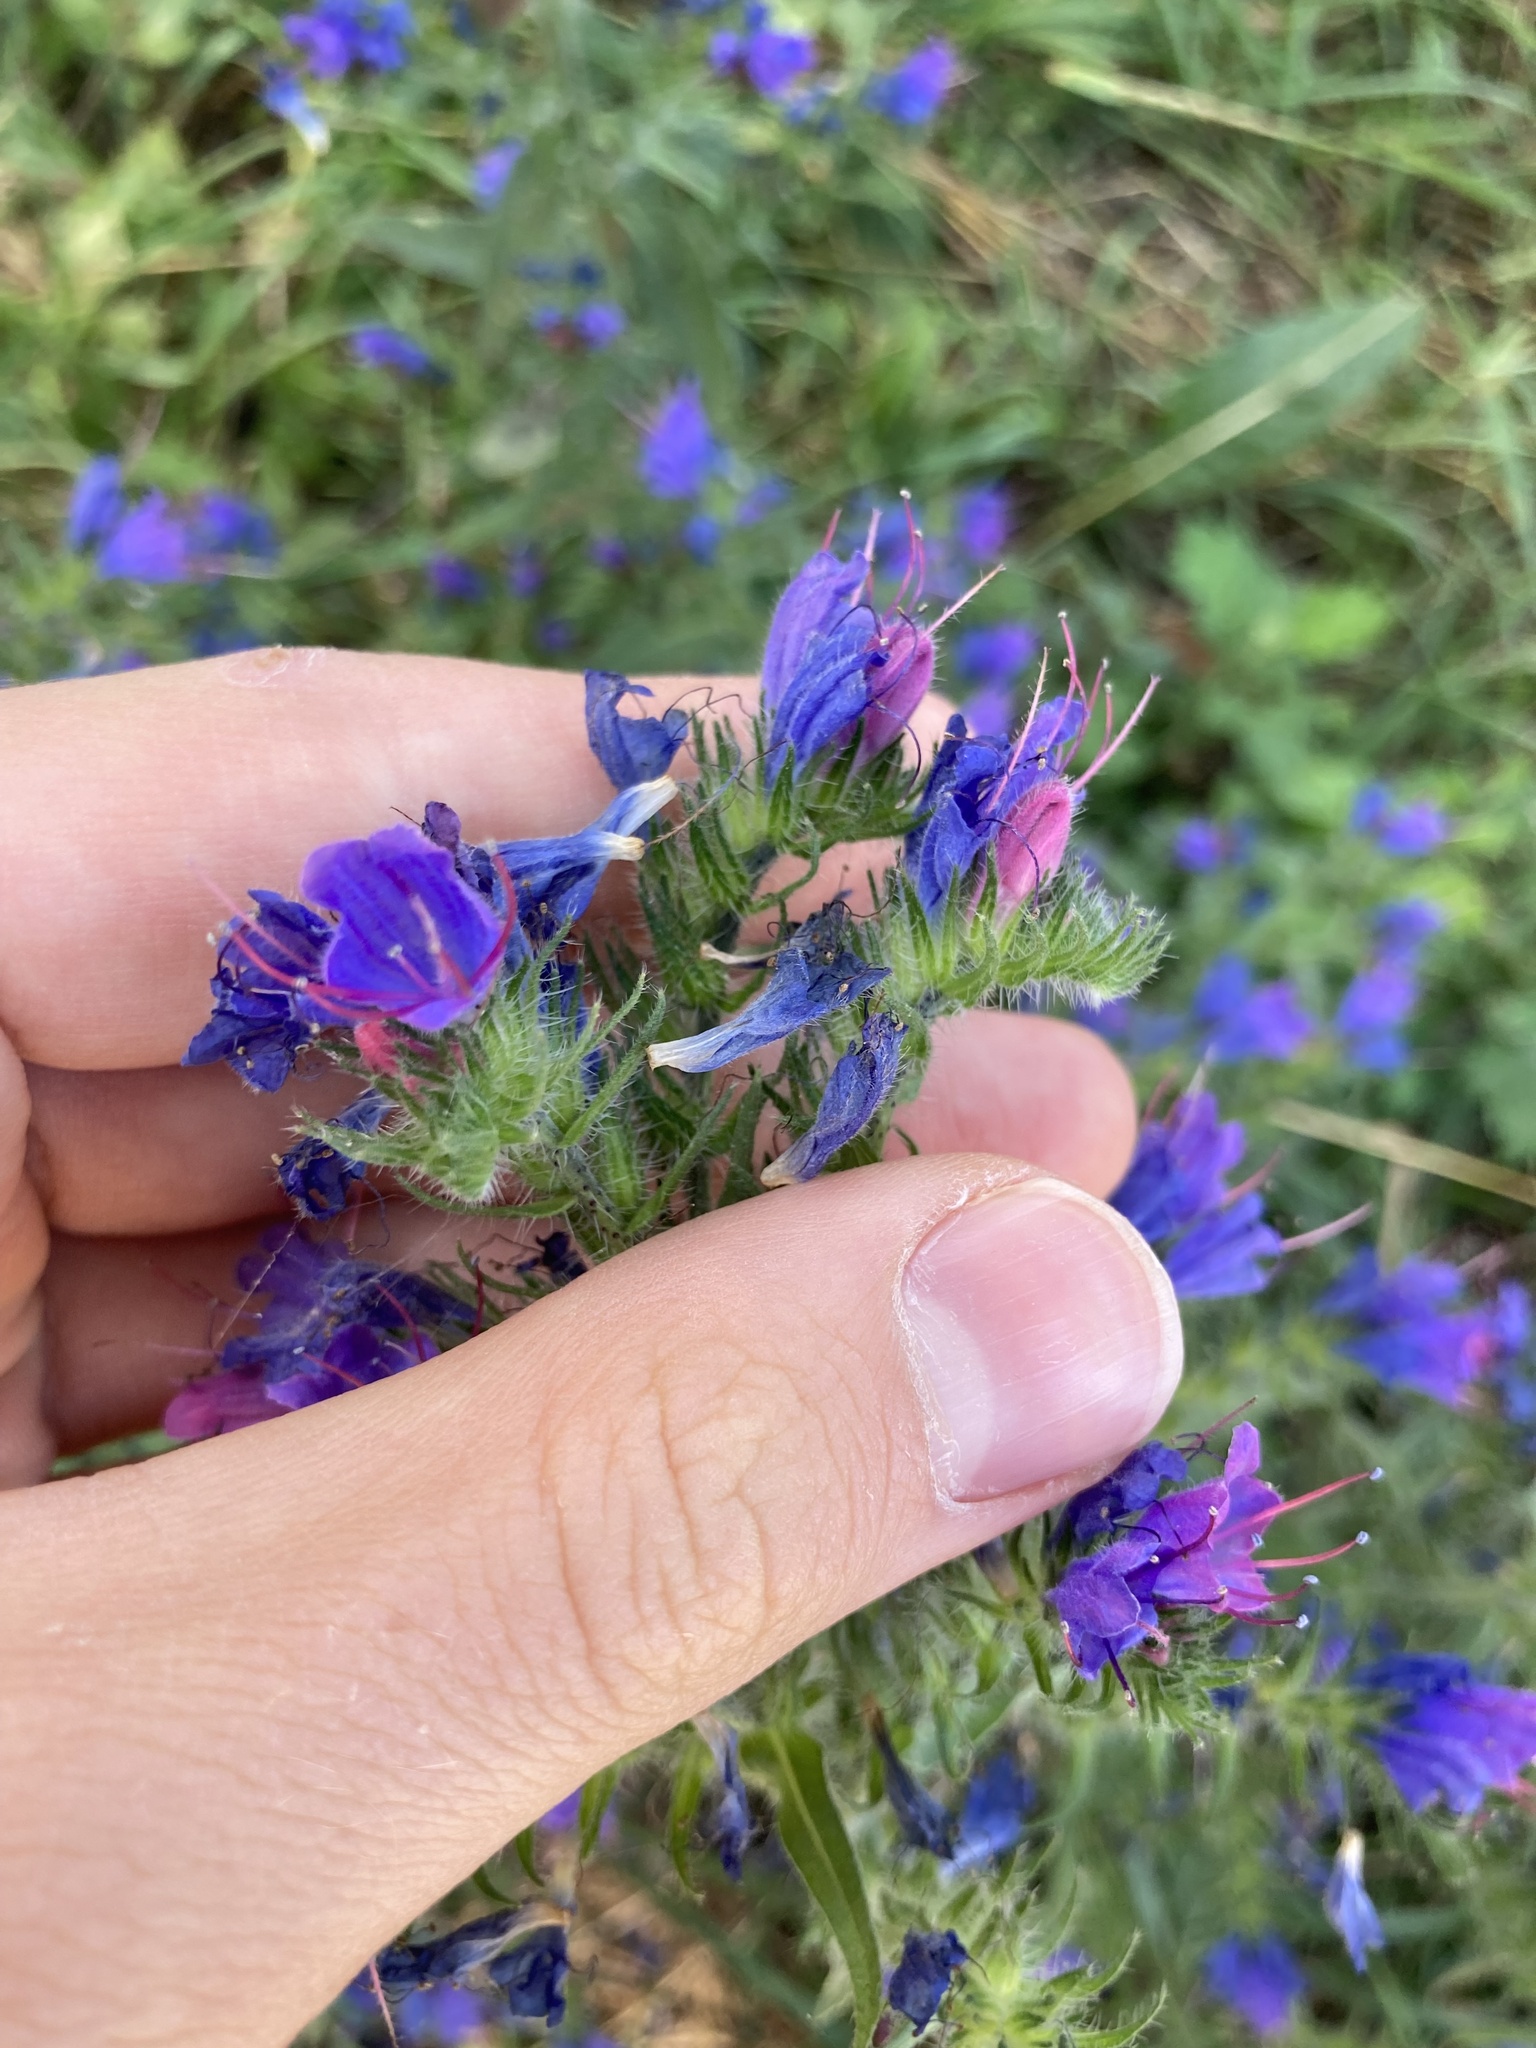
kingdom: Plantae
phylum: Tracheophyta
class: Magnoliopsida
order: Boraginales
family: Boraginaceae
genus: Echium
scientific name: Echium vulgare
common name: Common viper's bugloss
